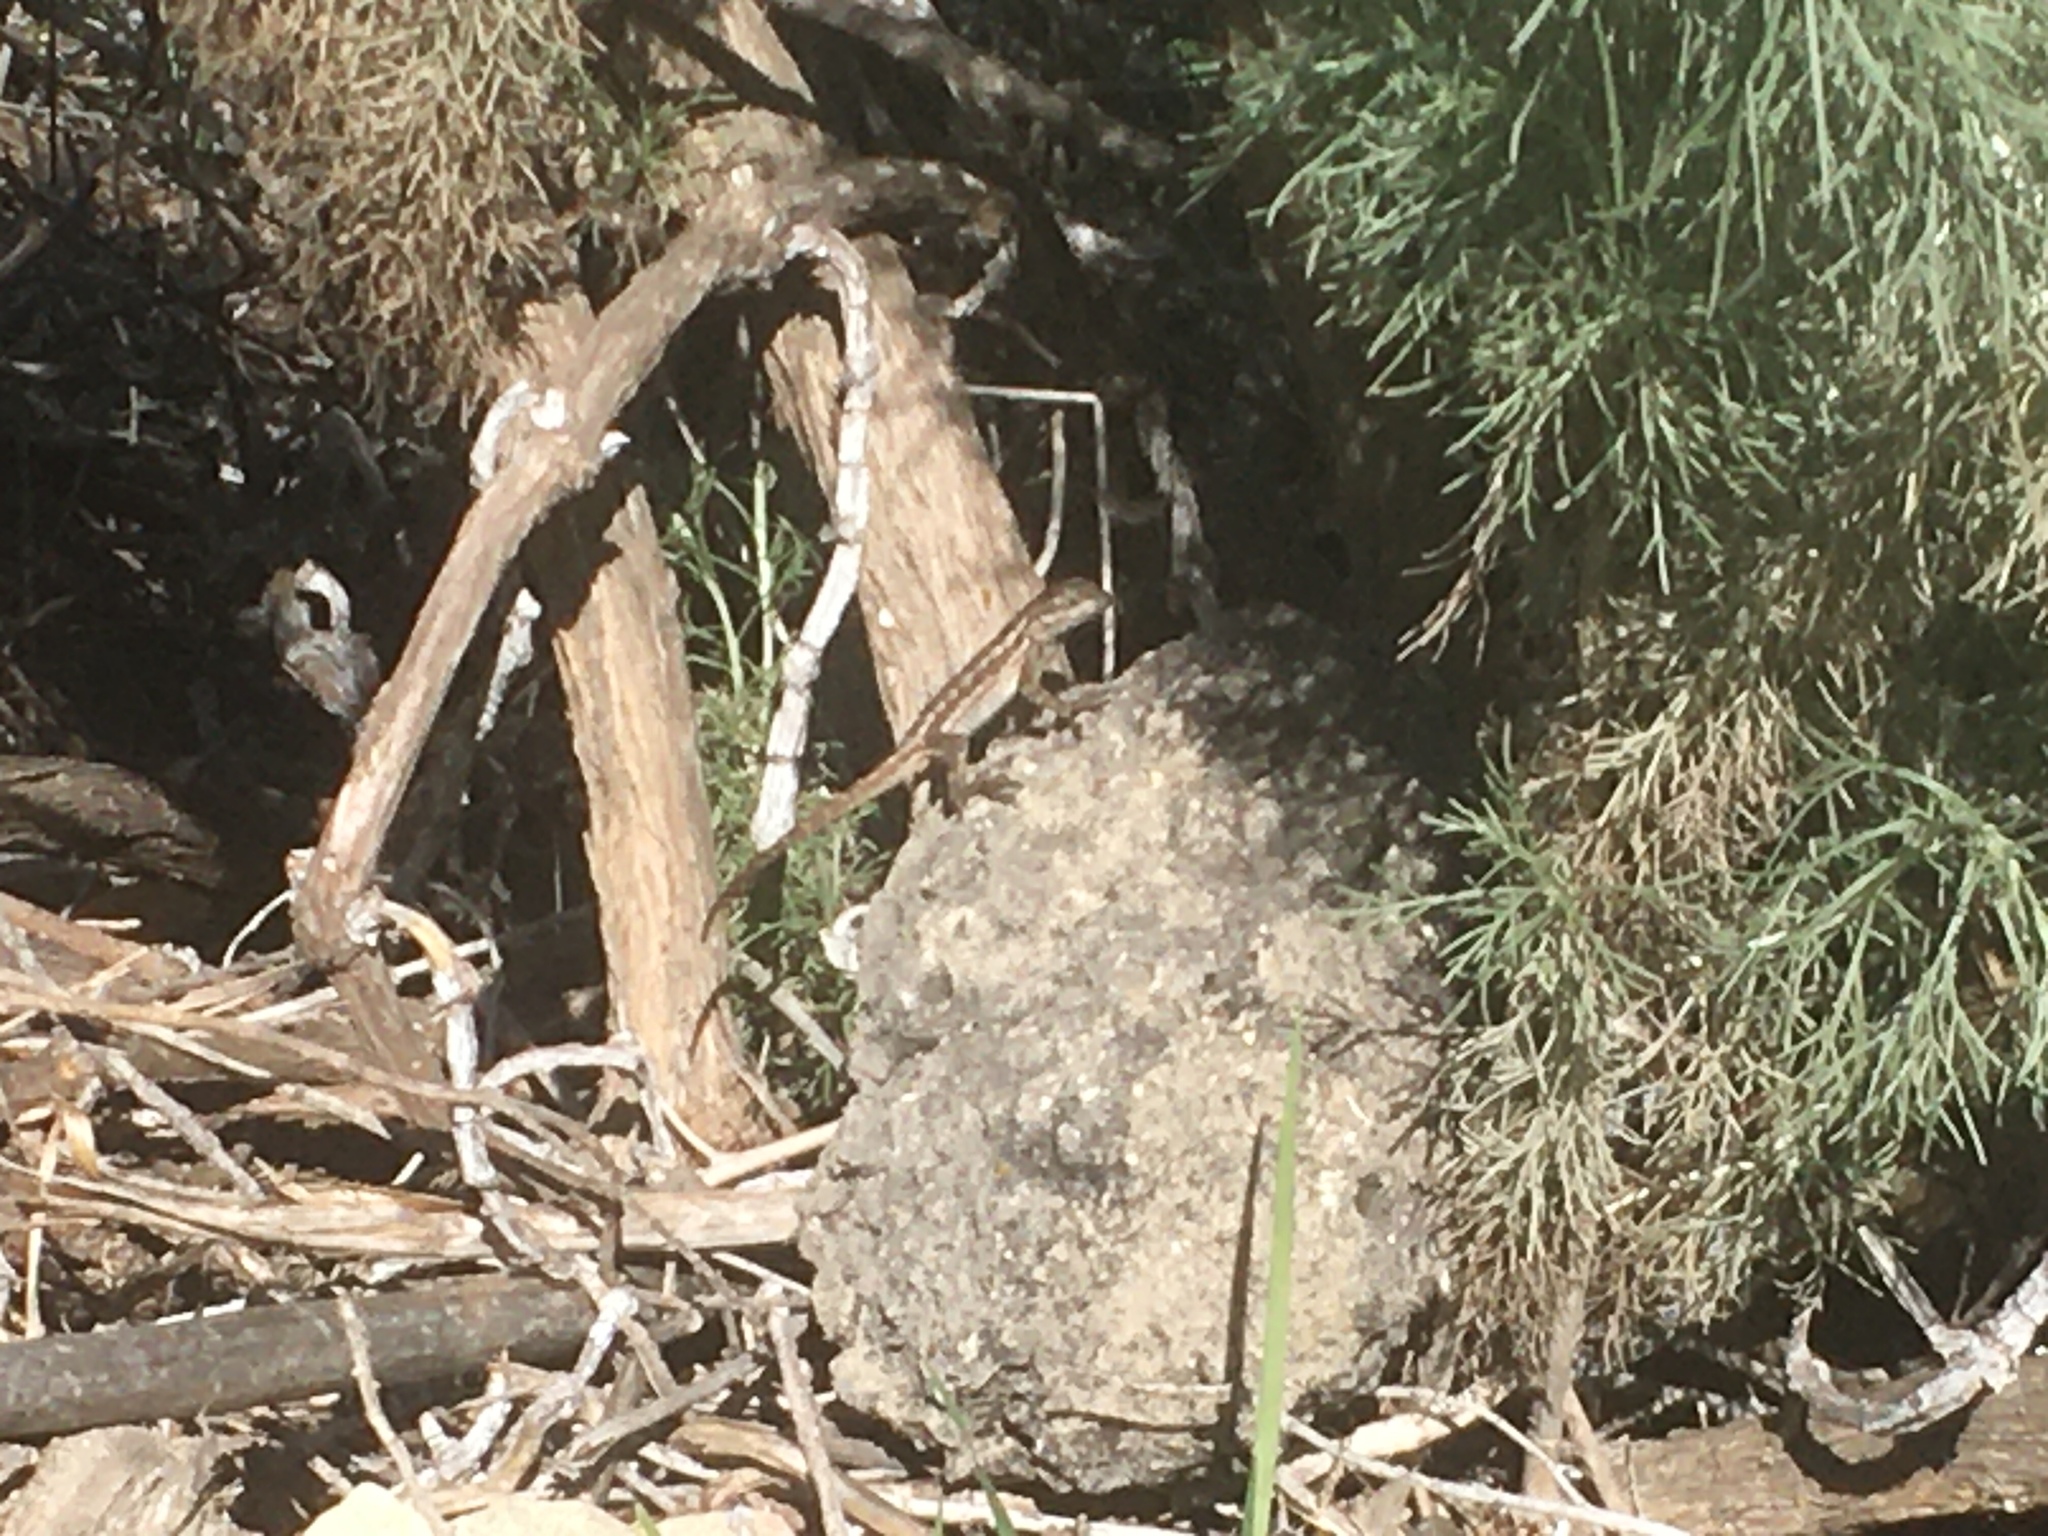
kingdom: Animalia
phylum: Chordata
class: Squamata
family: Phrynosomatidae
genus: Sceloporus
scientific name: Sceloporus occidentalis
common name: Western fence lizard
